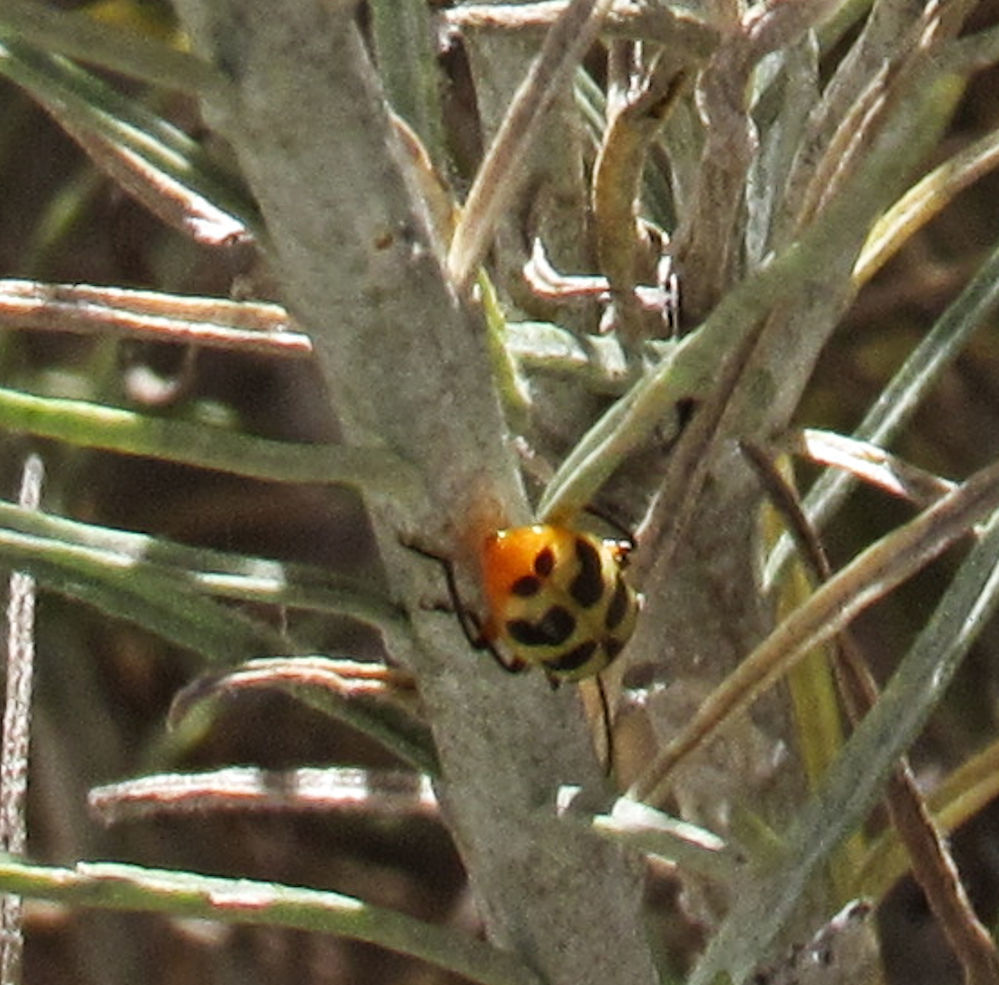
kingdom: Animalia
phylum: Arthropoda
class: Insecta
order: Coleoptera
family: Chrysomelidae
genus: Paranapiacaba
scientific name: Paranapiacaba tricincta
